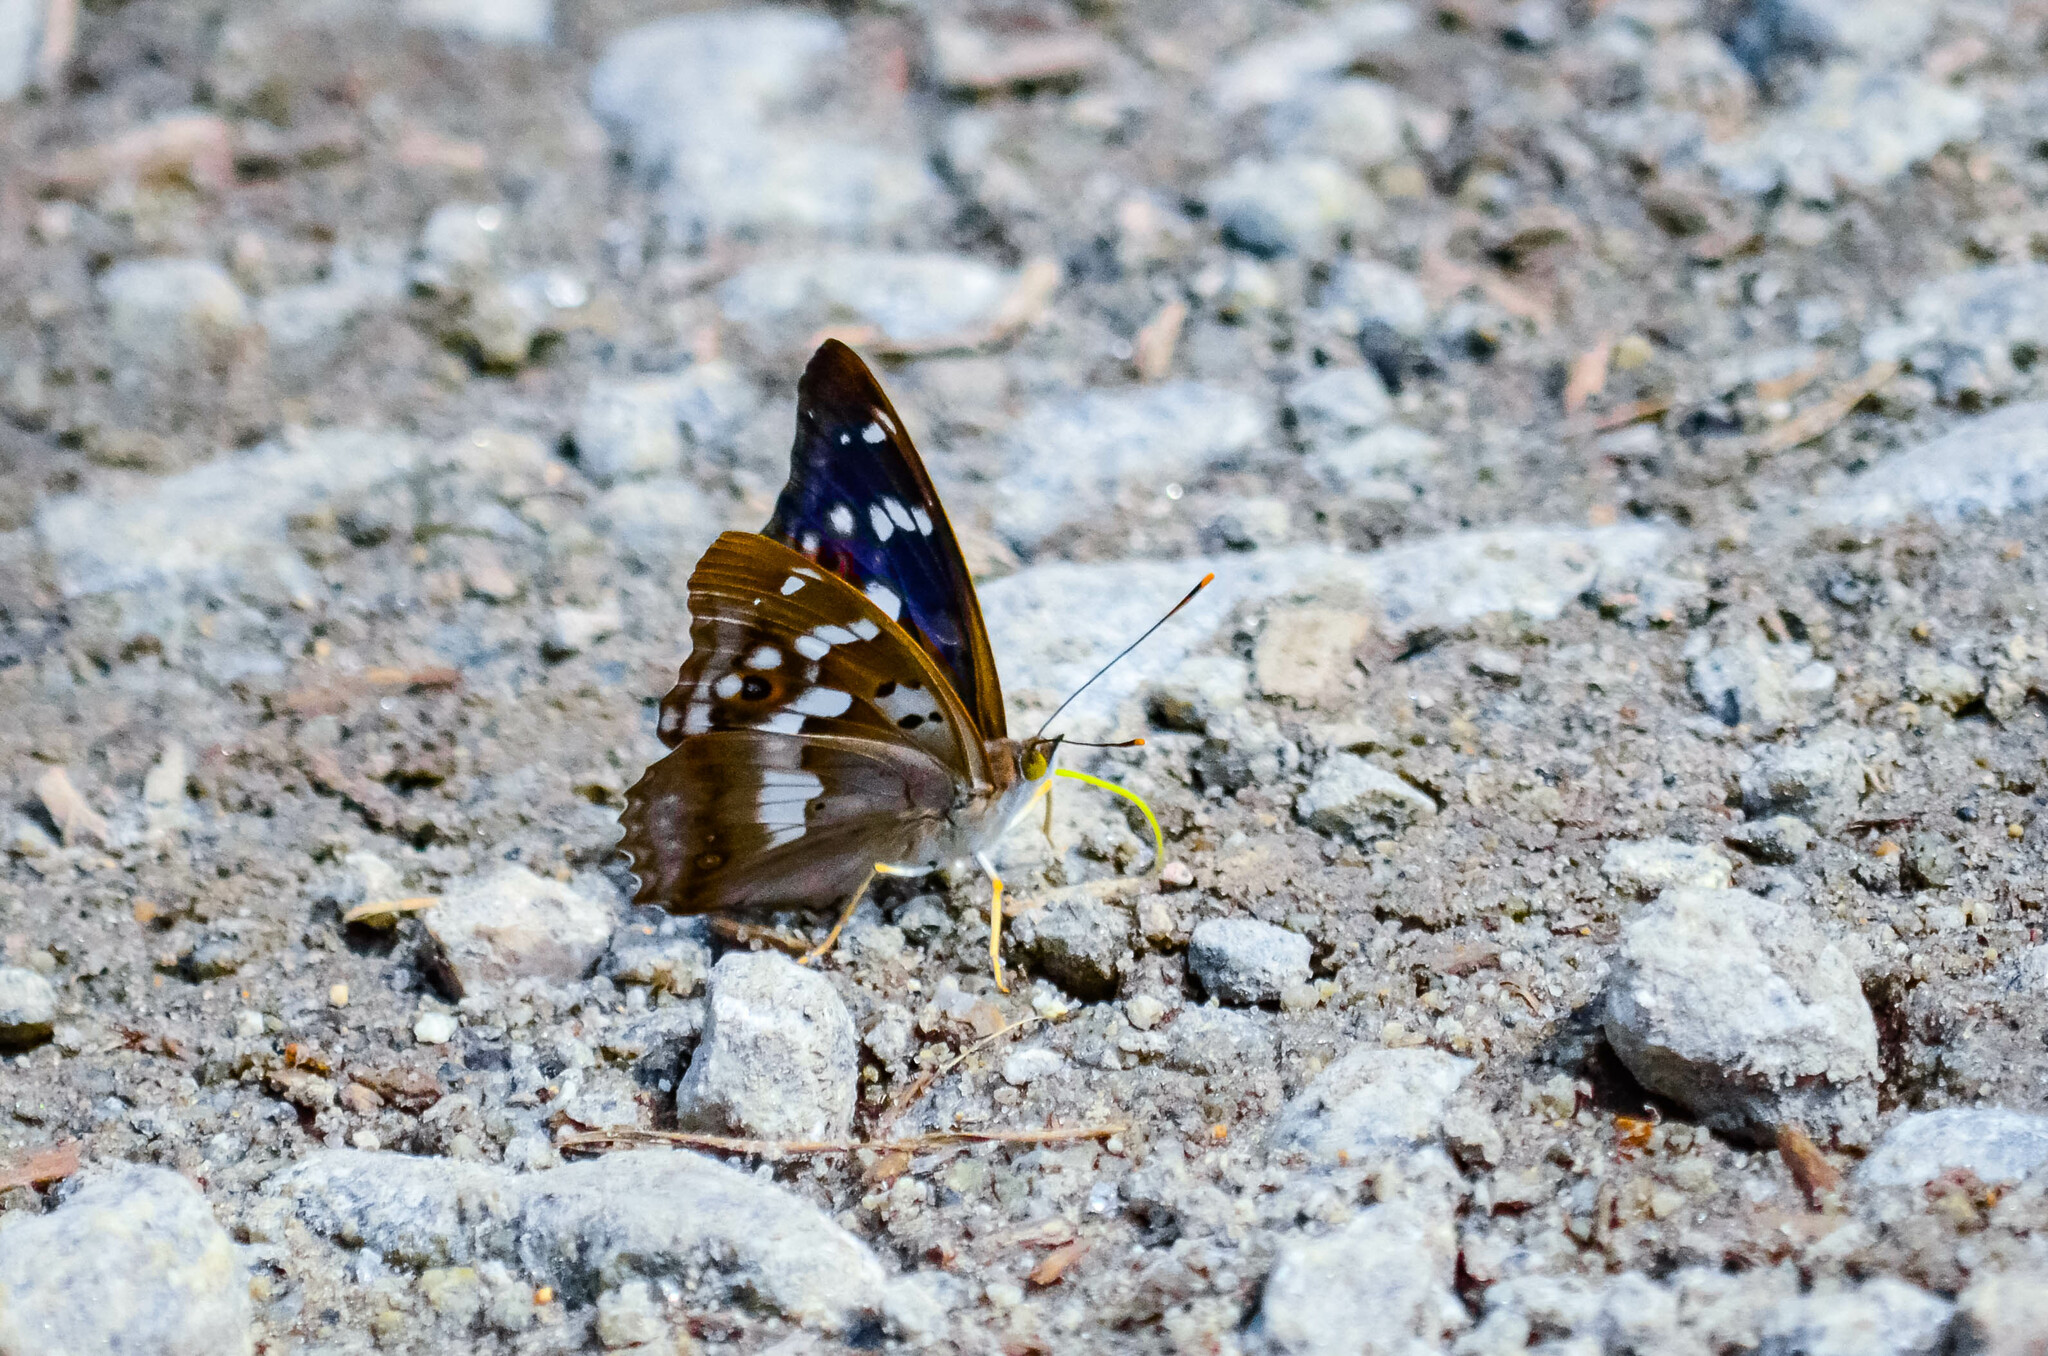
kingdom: Animalia
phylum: Arthropoda
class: Insecta
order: Lepidoptera
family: Nymphalidae
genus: Apatura
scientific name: Apatura ilia
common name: Lesser purple emperor
